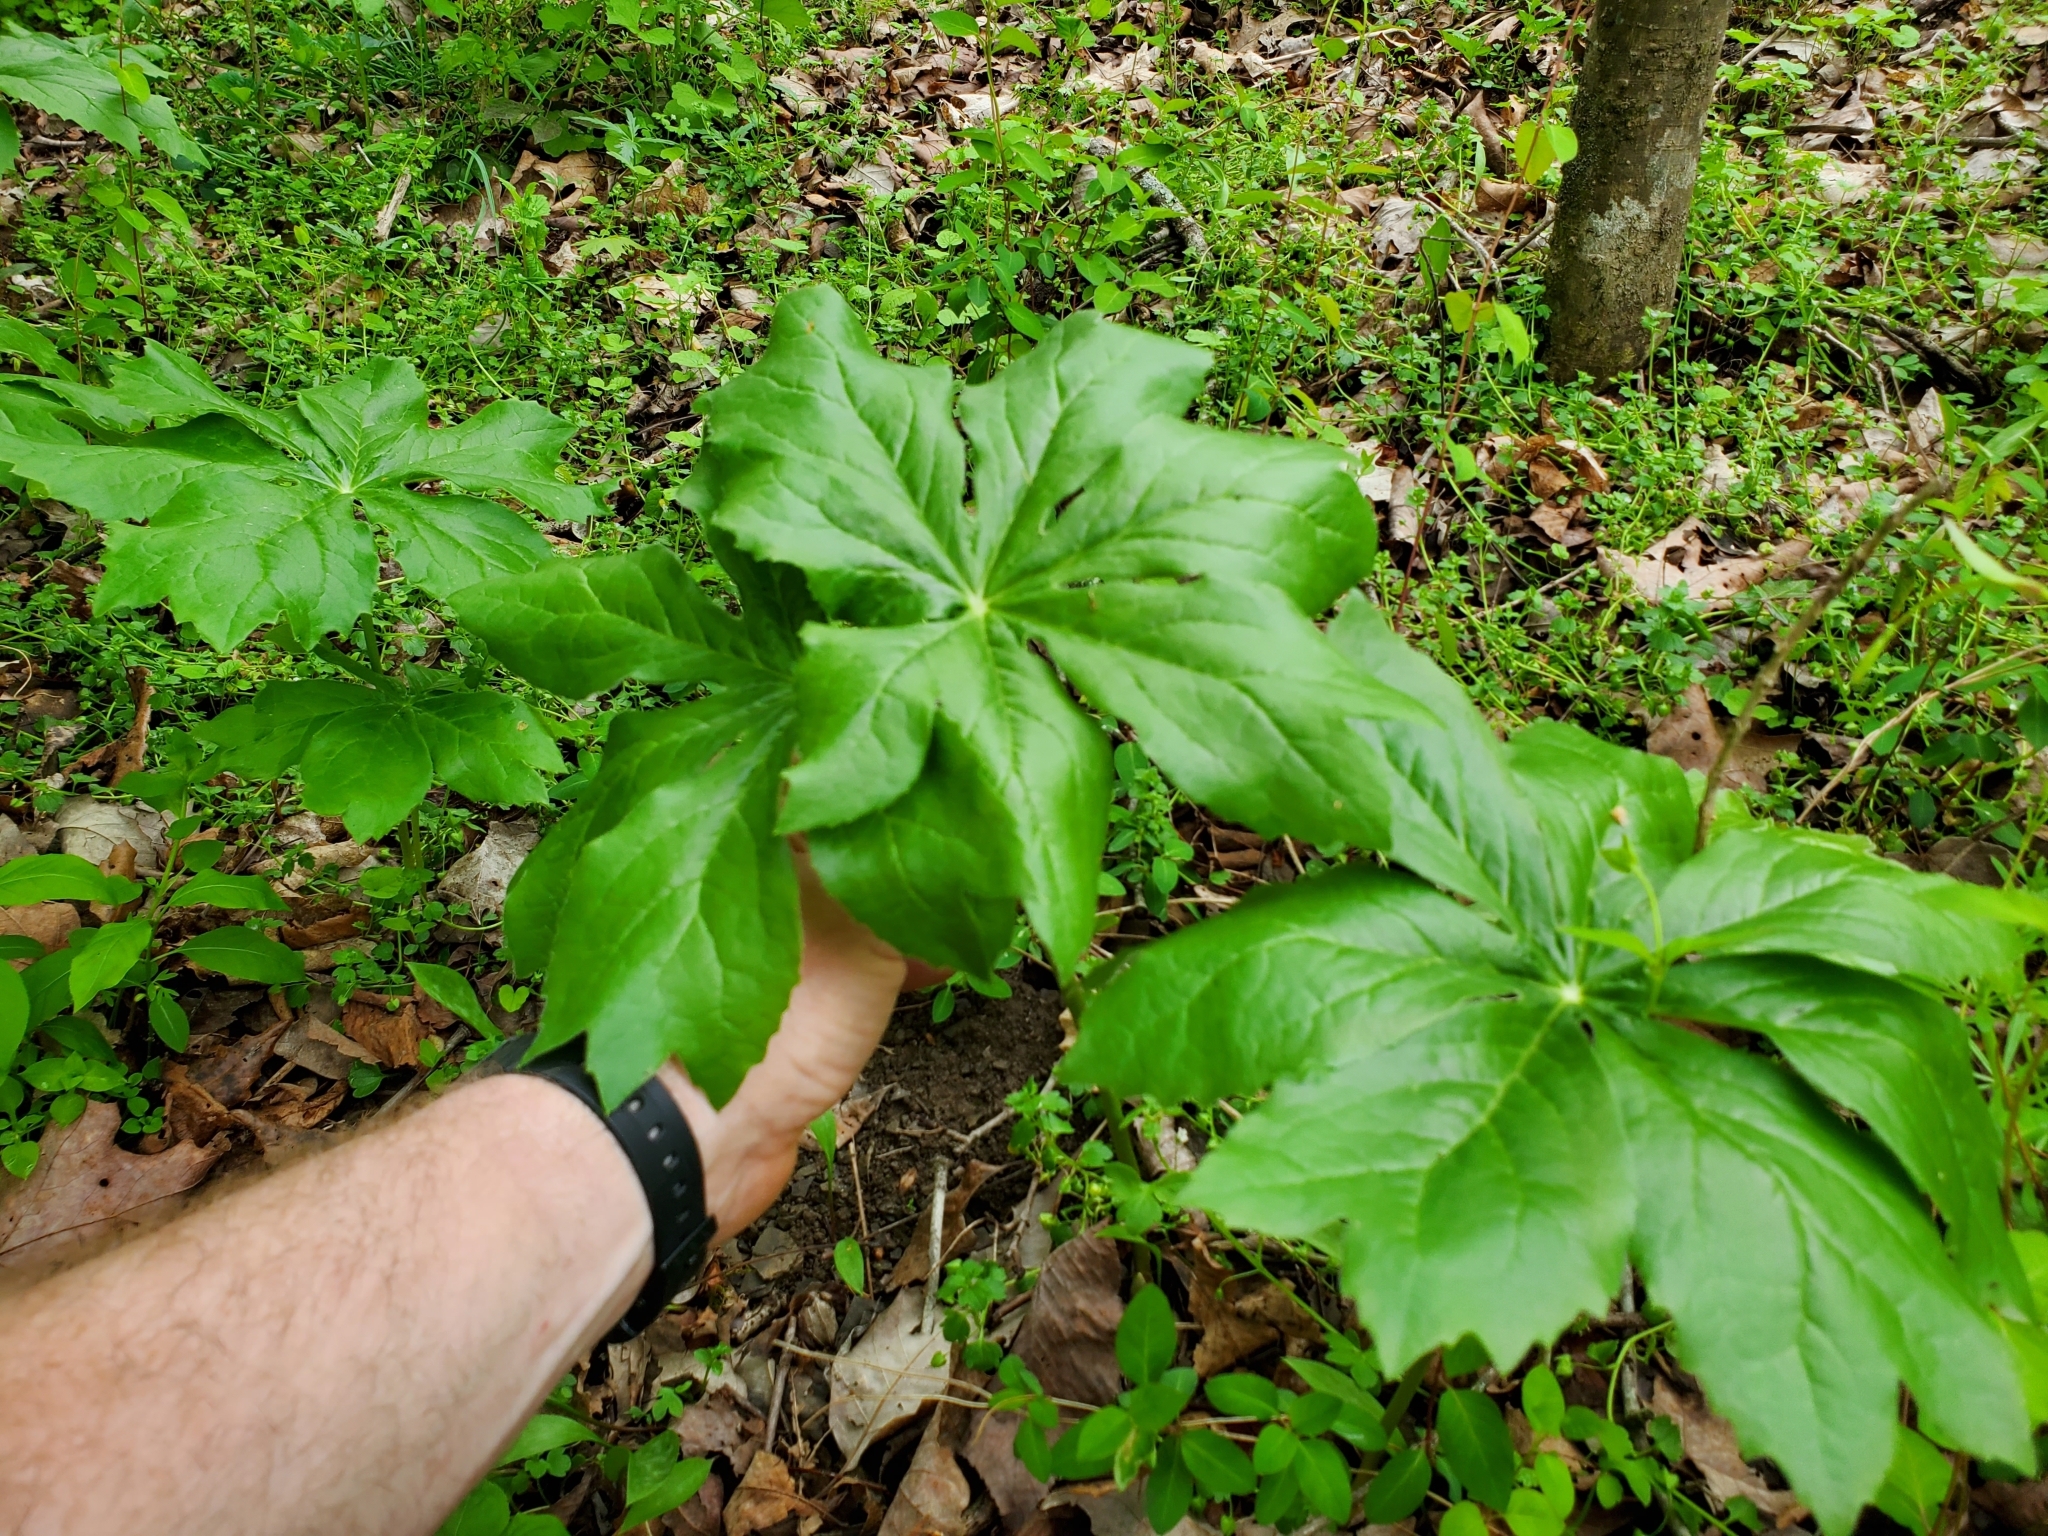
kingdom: Plantae
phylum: Tracheophyta
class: Magnoliopsida
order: Ranunculales
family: Berberidaceae
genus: Podophyllum
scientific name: Podophyllum peltatum
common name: Wild mandrake
